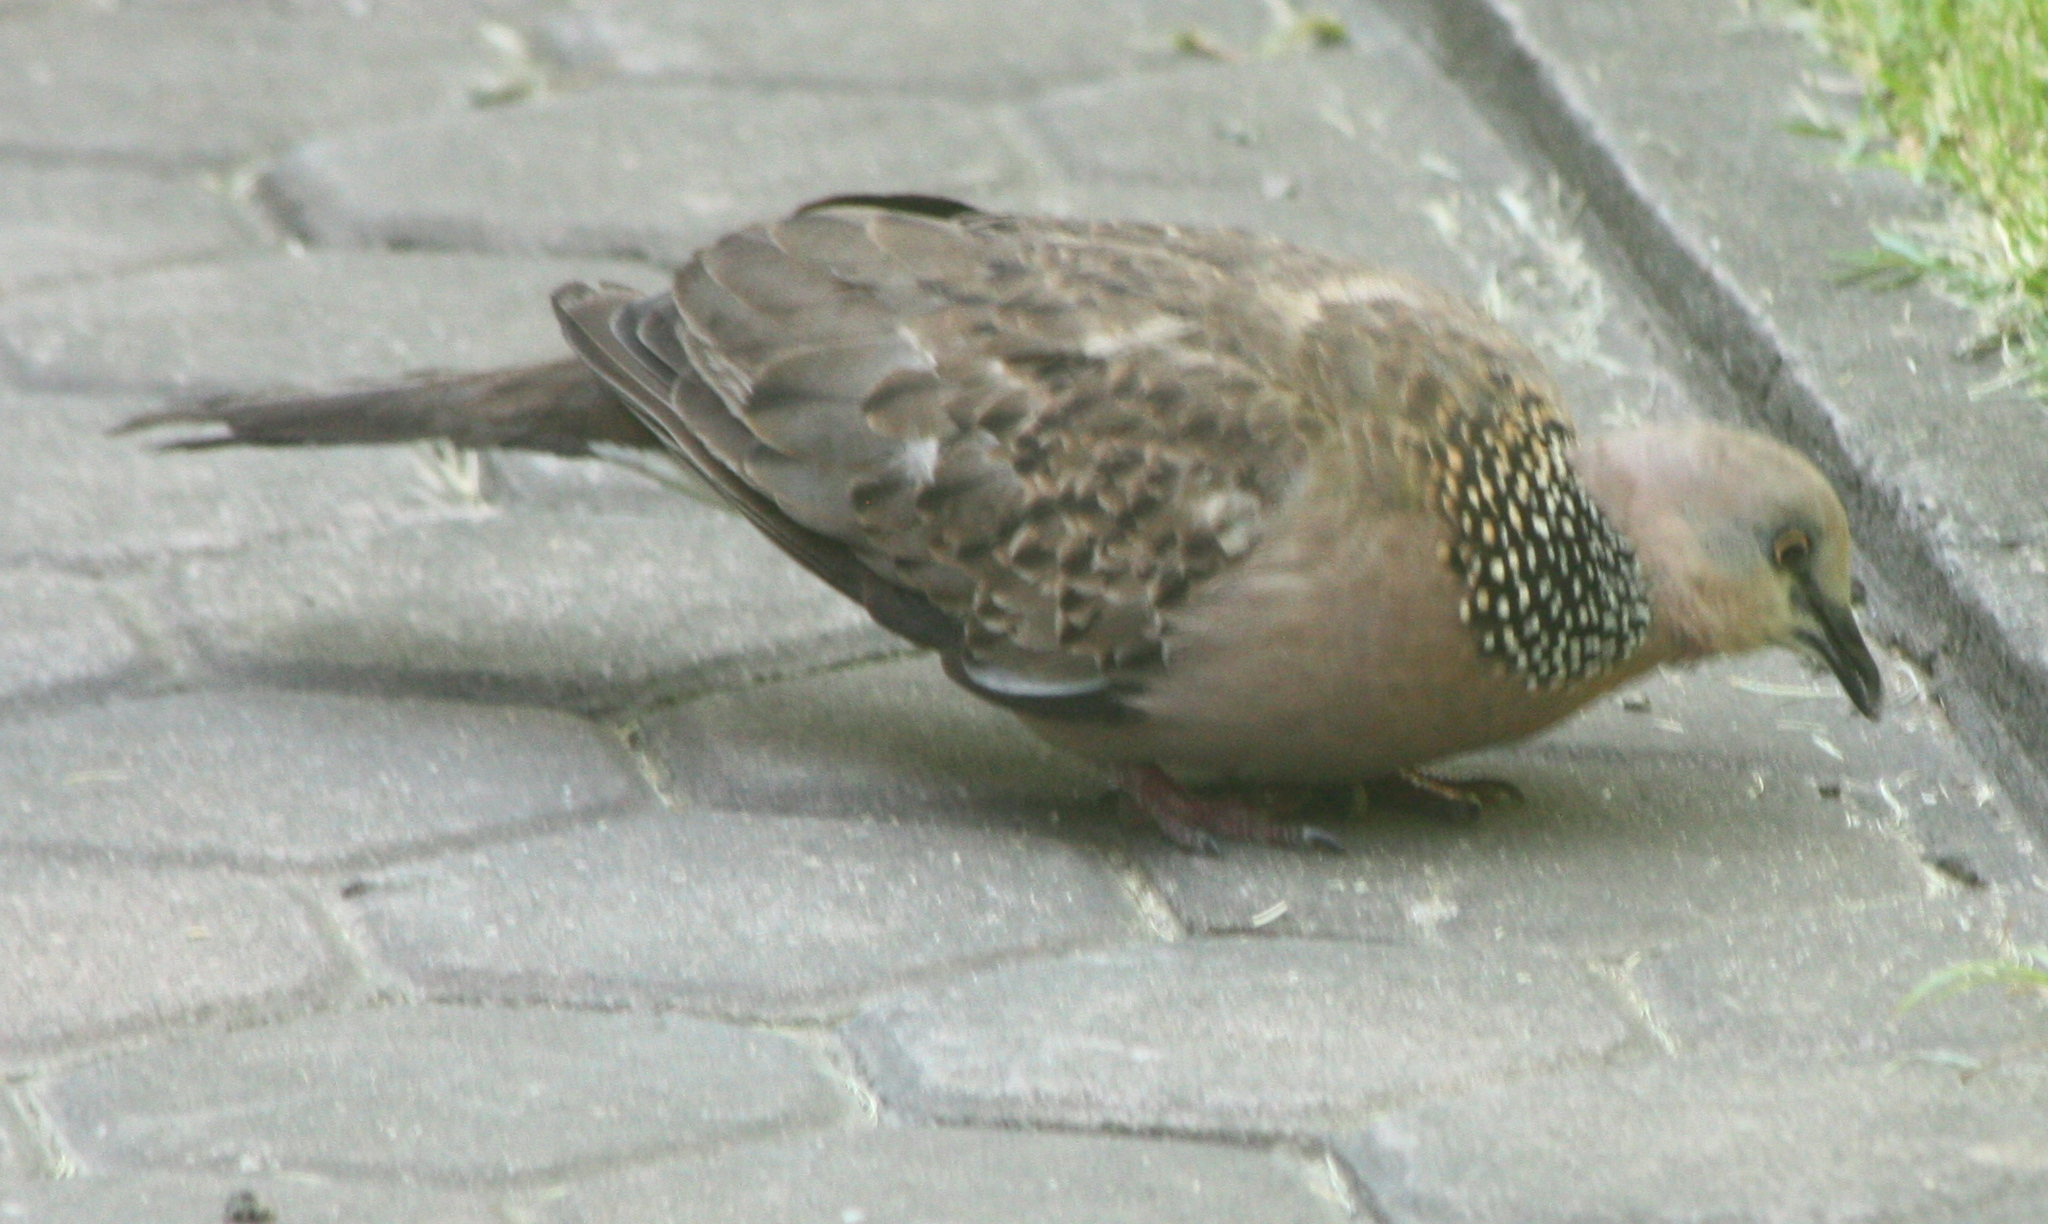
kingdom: Animalia
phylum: Chordata
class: Aves
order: Columbiformes
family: Columbidae
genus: Spilopelia
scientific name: Spilopelia chinensis
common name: Spotted dove
